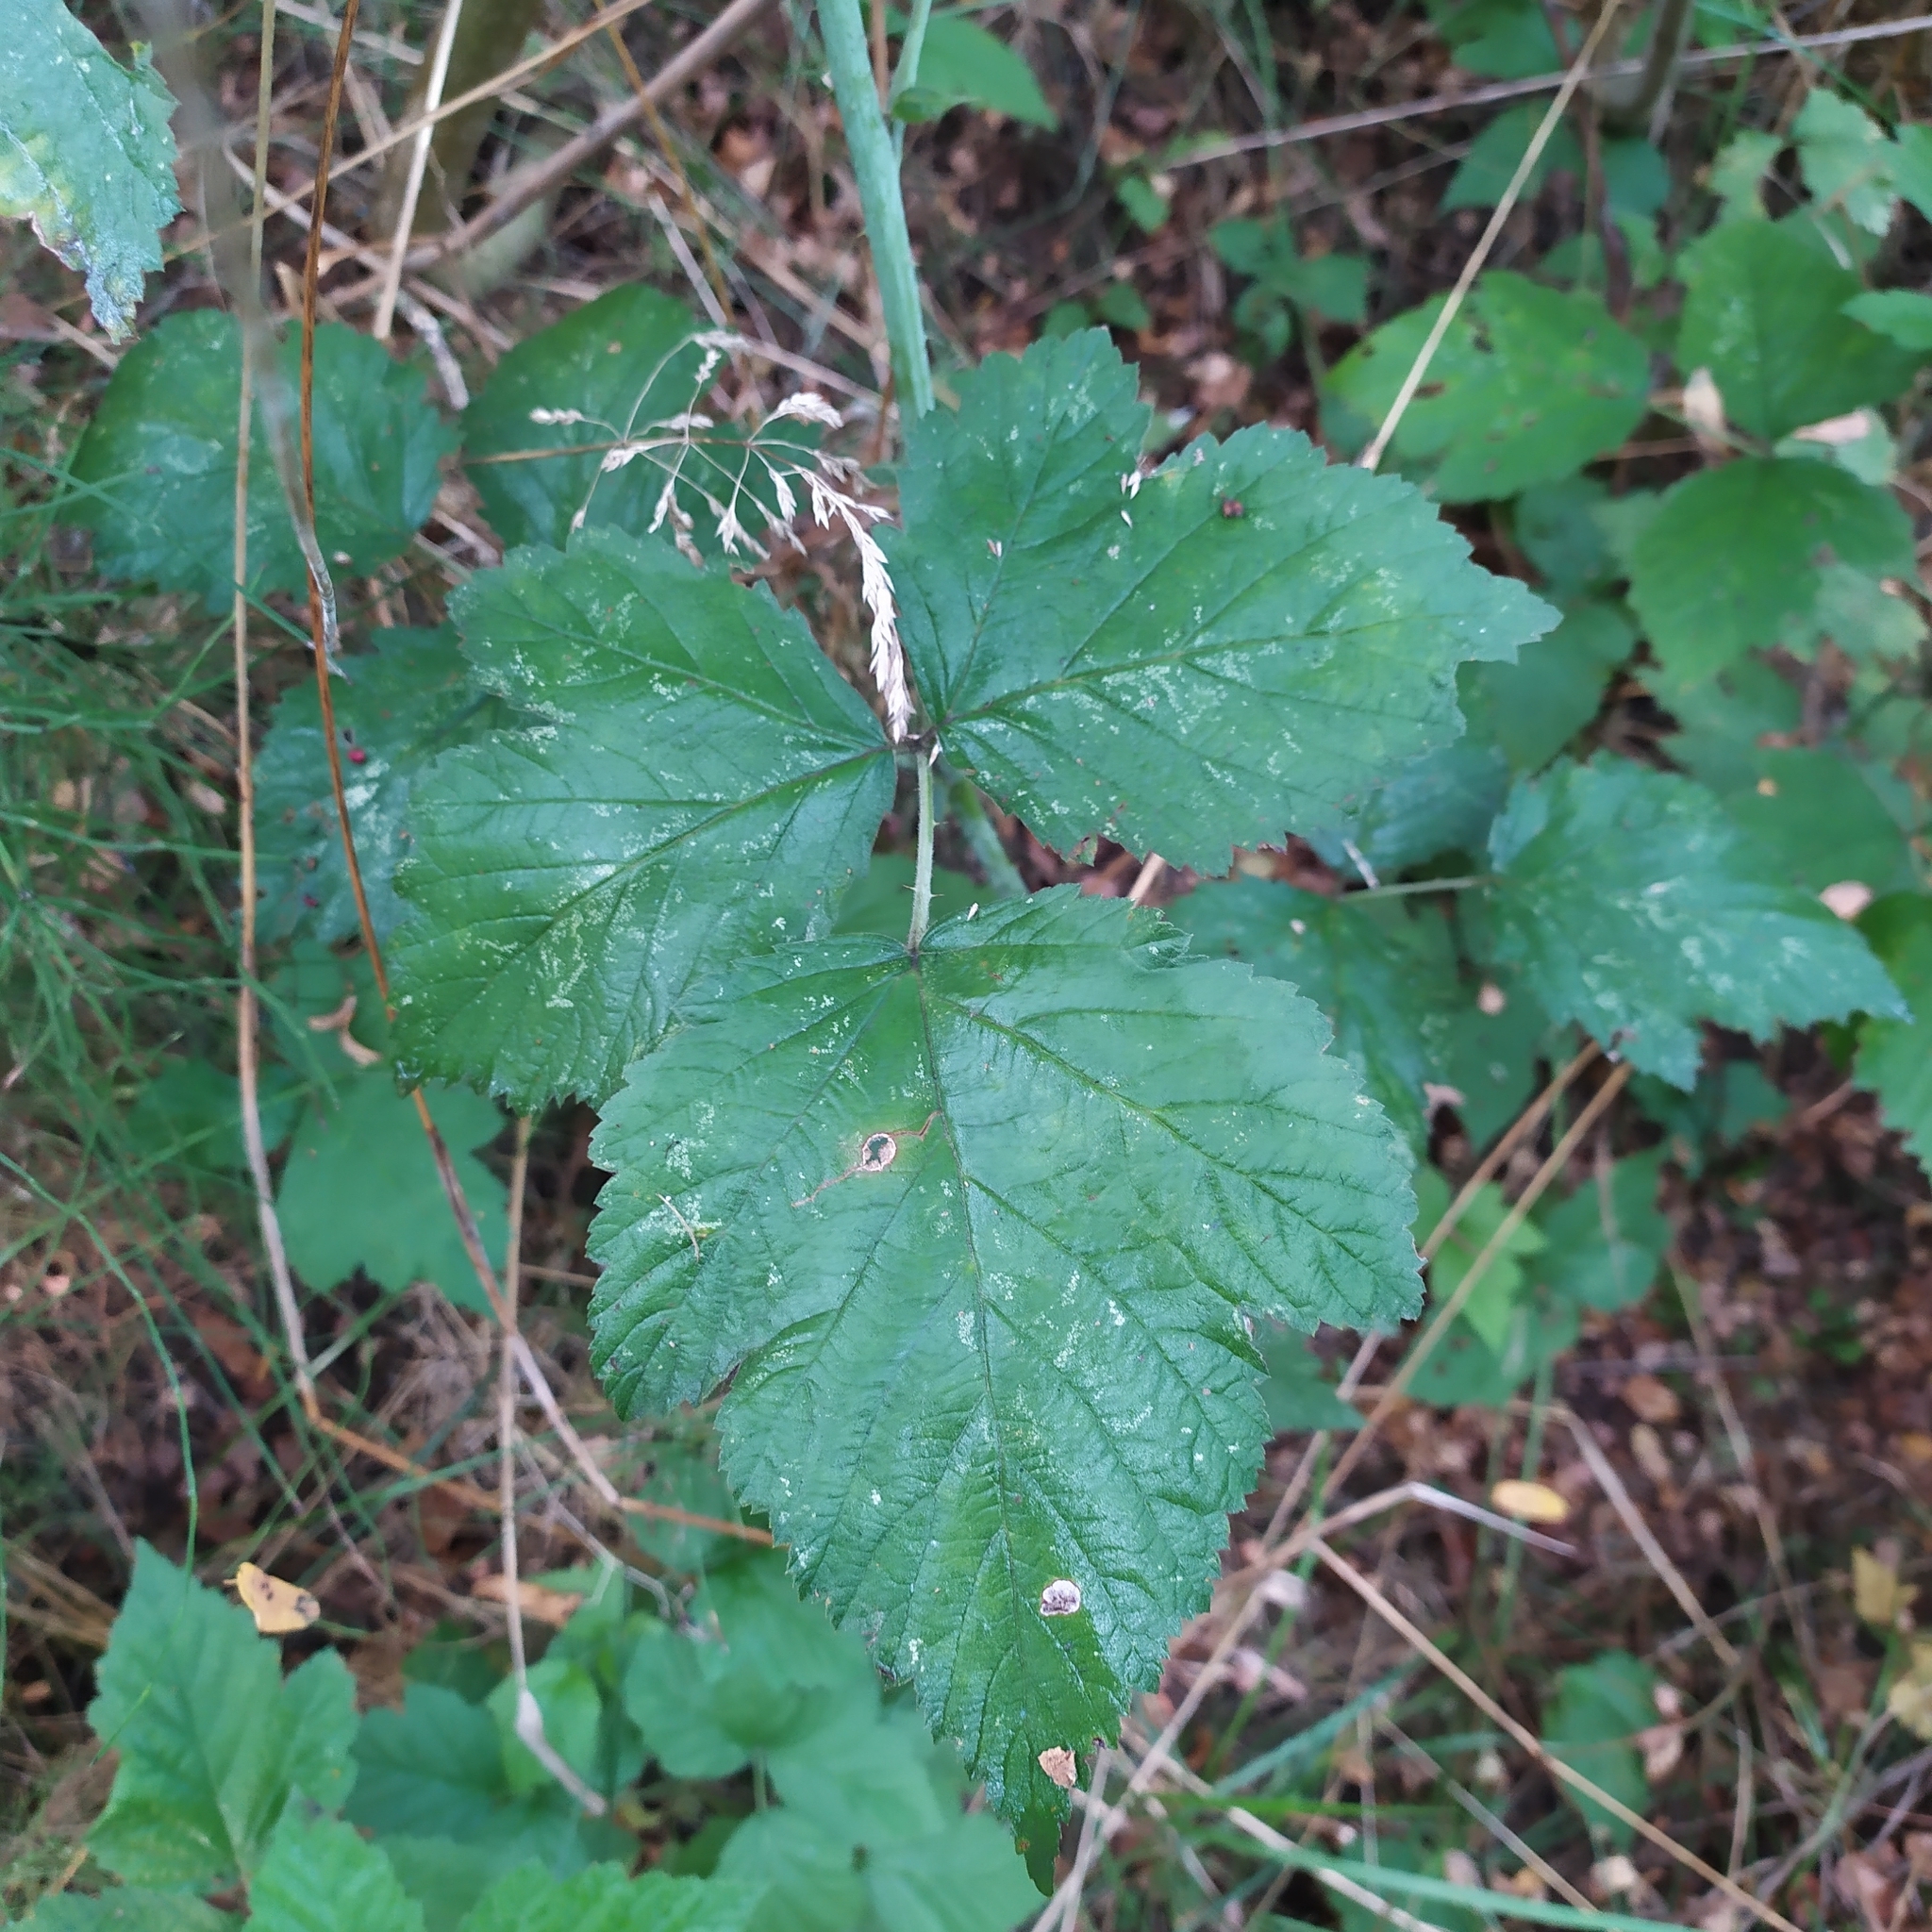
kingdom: Plantae
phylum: Tracheophyta
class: Magnoliopsida
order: Rosales
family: Rosaceae
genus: Rubus
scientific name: Rubus caesius
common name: Dewberry
